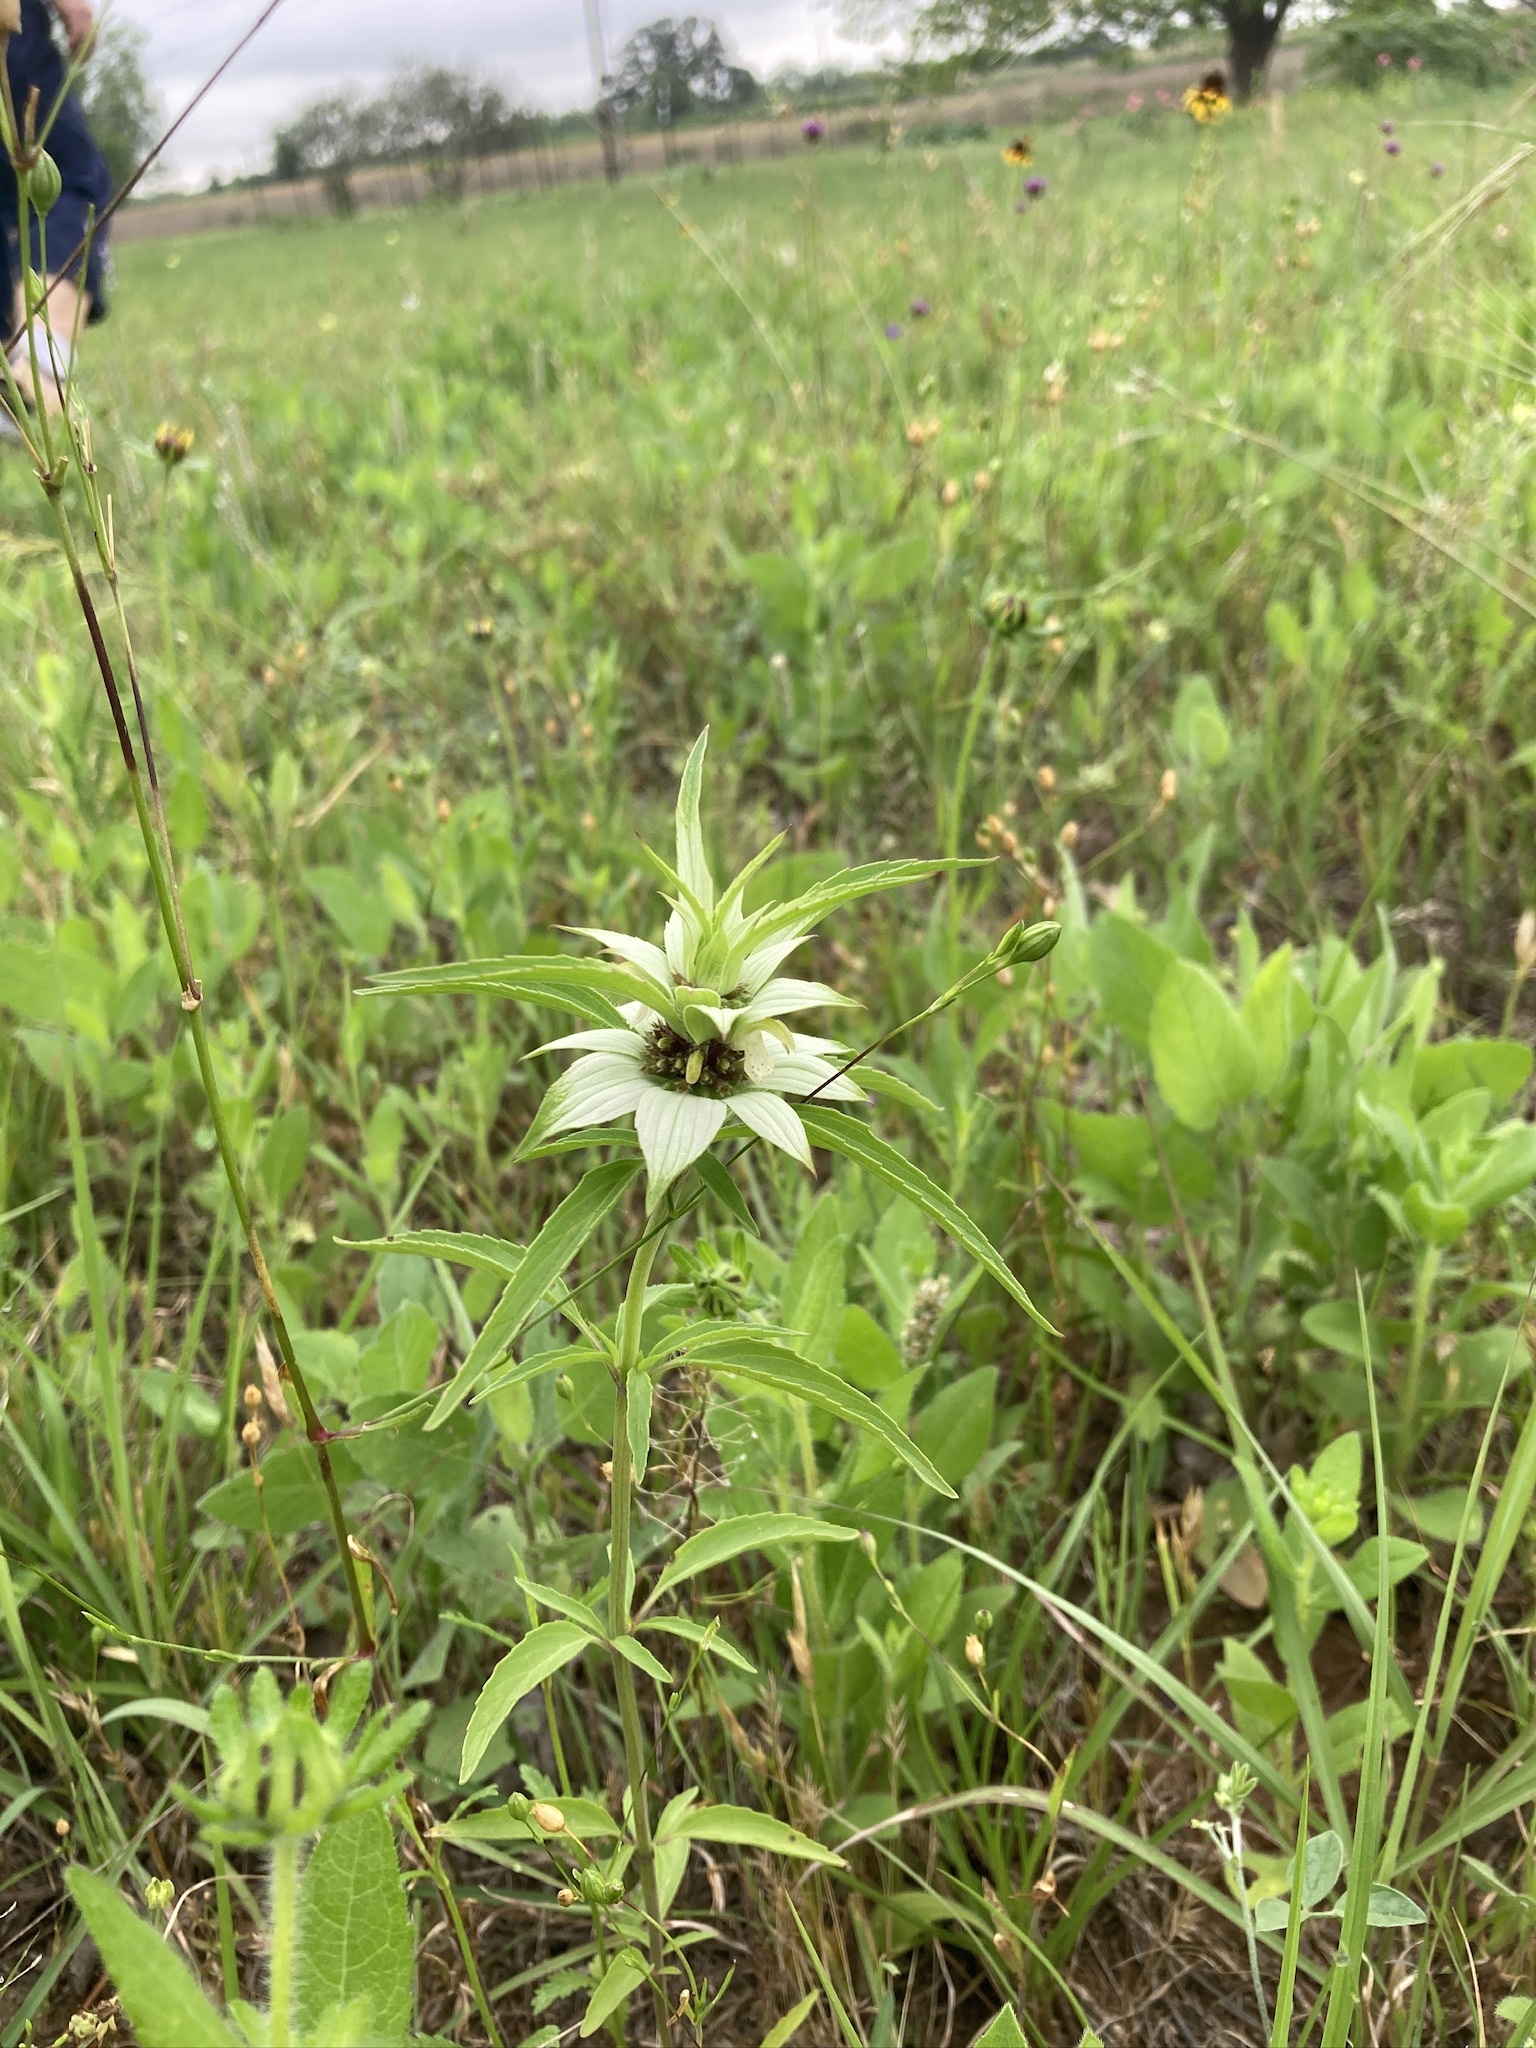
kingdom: Plantae
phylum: Tracheophyta
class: Magnoliopsida
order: Lamiales
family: Lamiaceae
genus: Monarda
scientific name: Monarda punctata
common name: Dotted monarda
